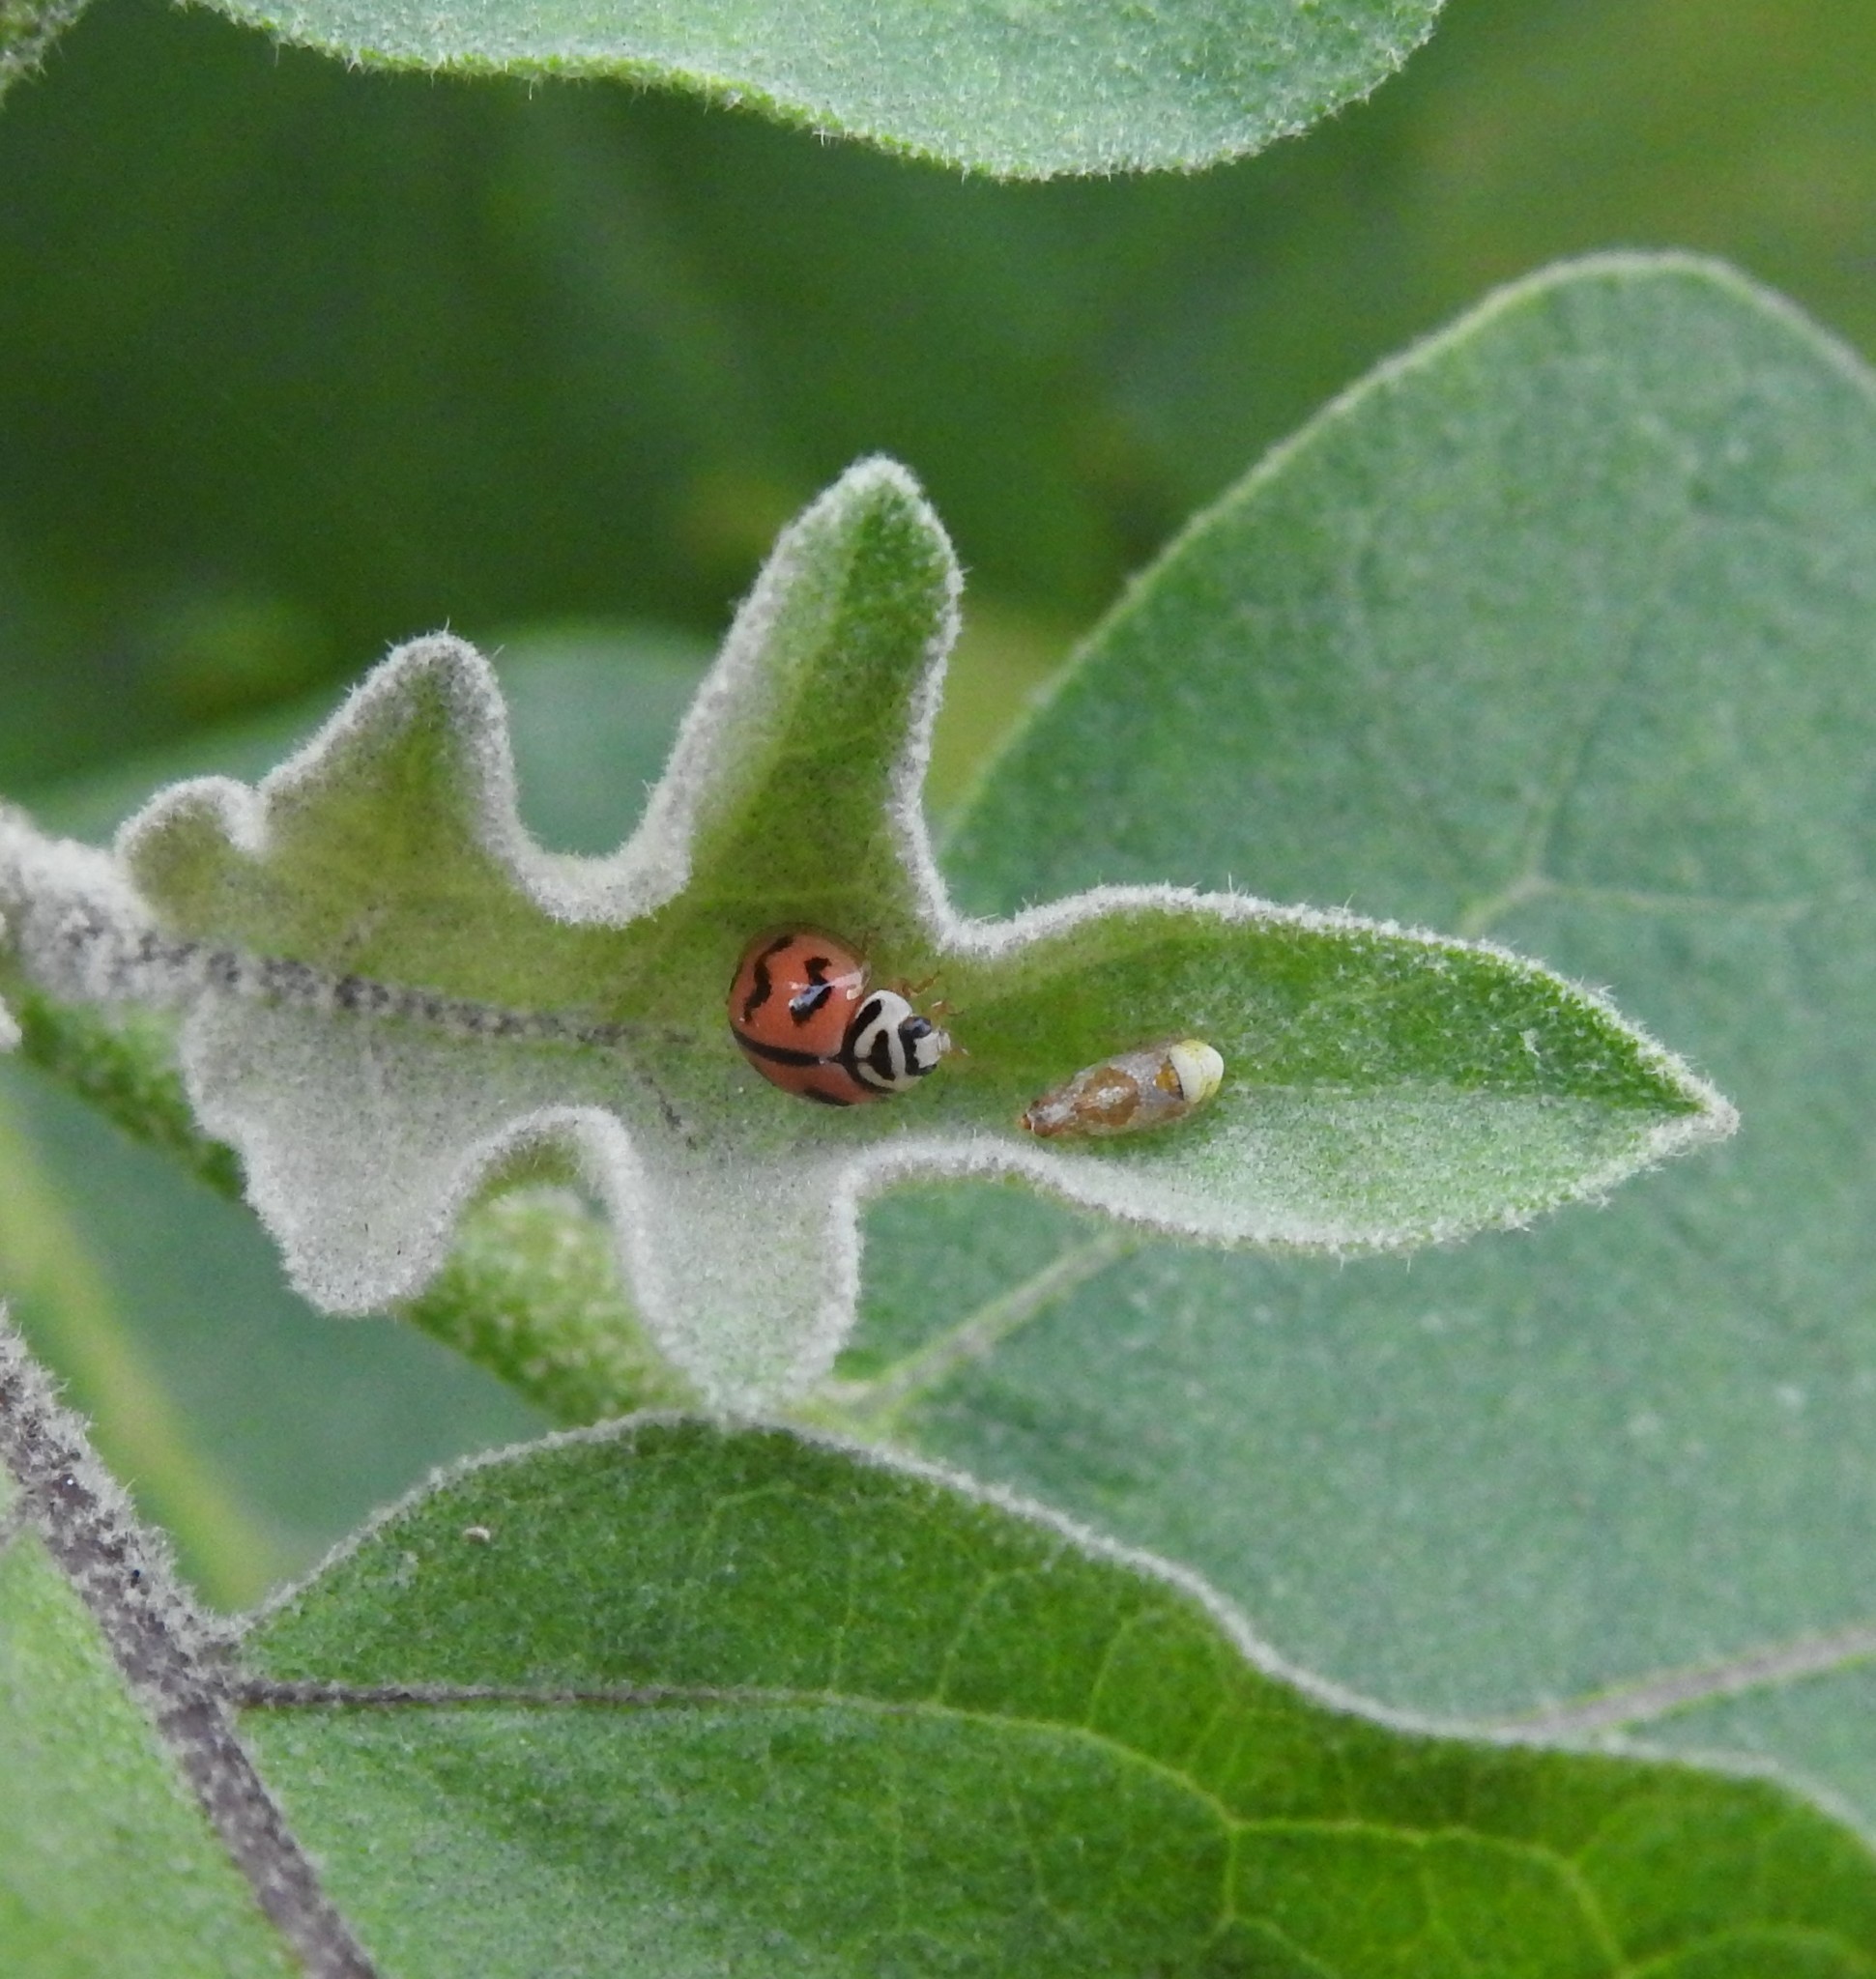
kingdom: Animalia
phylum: Arthropoda
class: Insecta
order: Coleoptera
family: Coccinellidae
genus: Cheilomenes
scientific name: Cheilomenes sexmaculata
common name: Ladybird beetle
